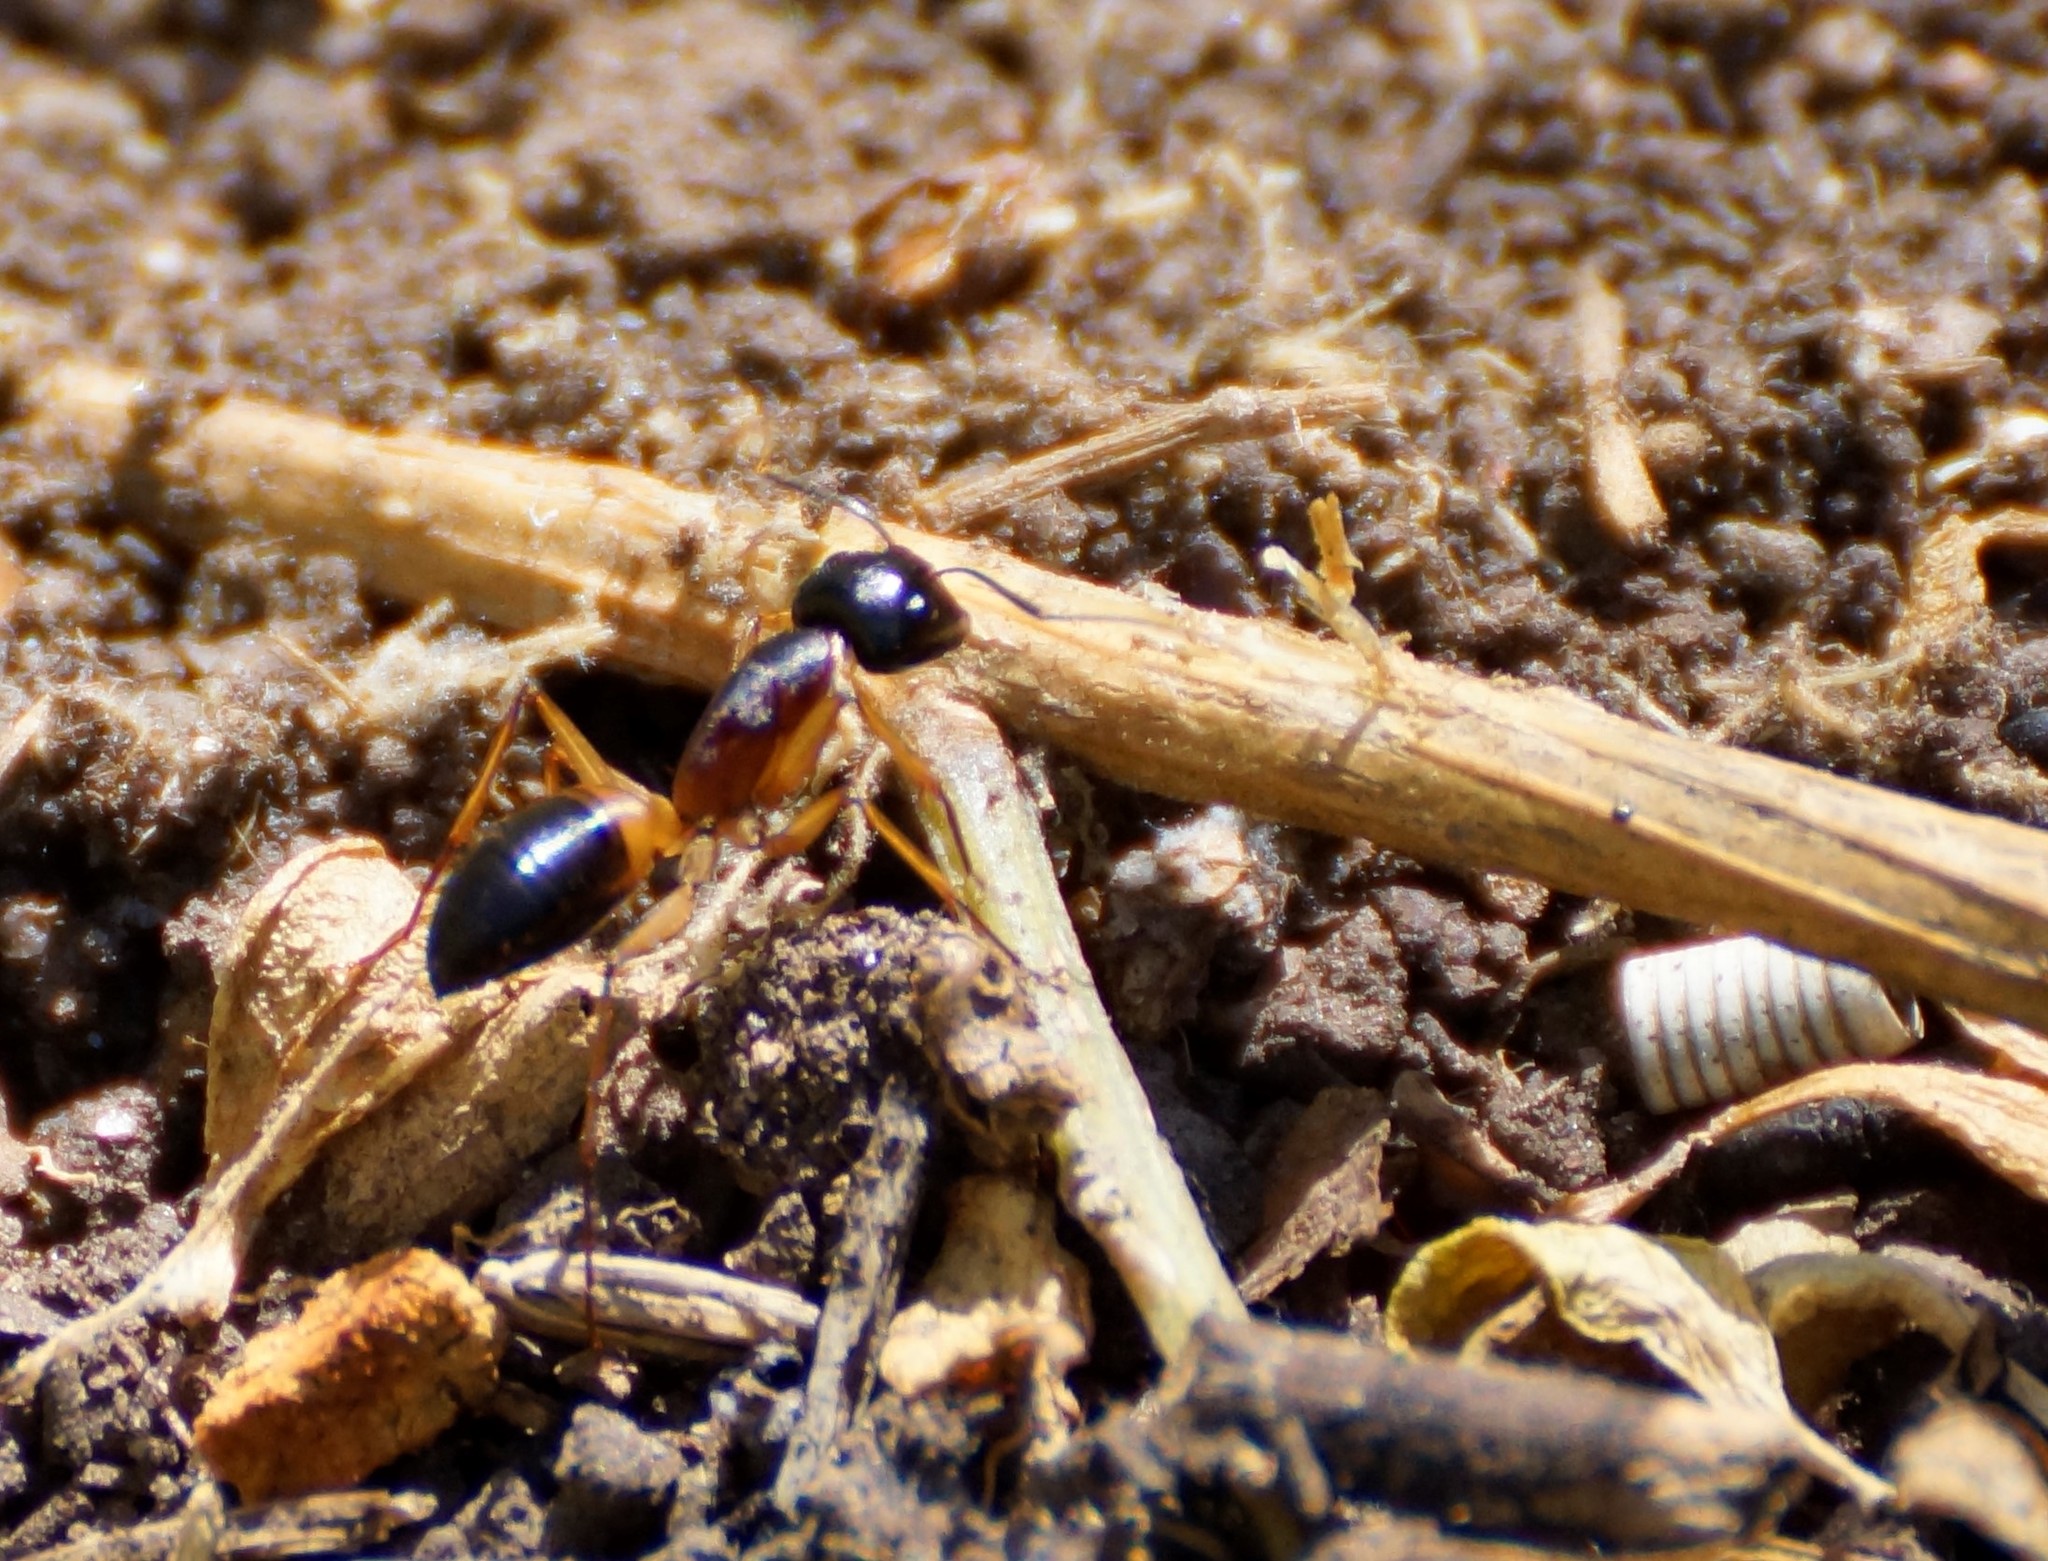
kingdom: Animalia
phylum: Arthropoda
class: Insecta
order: Hymenoptera
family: Formicidae
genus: Camponotus
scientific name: Camponotus consobrinus
